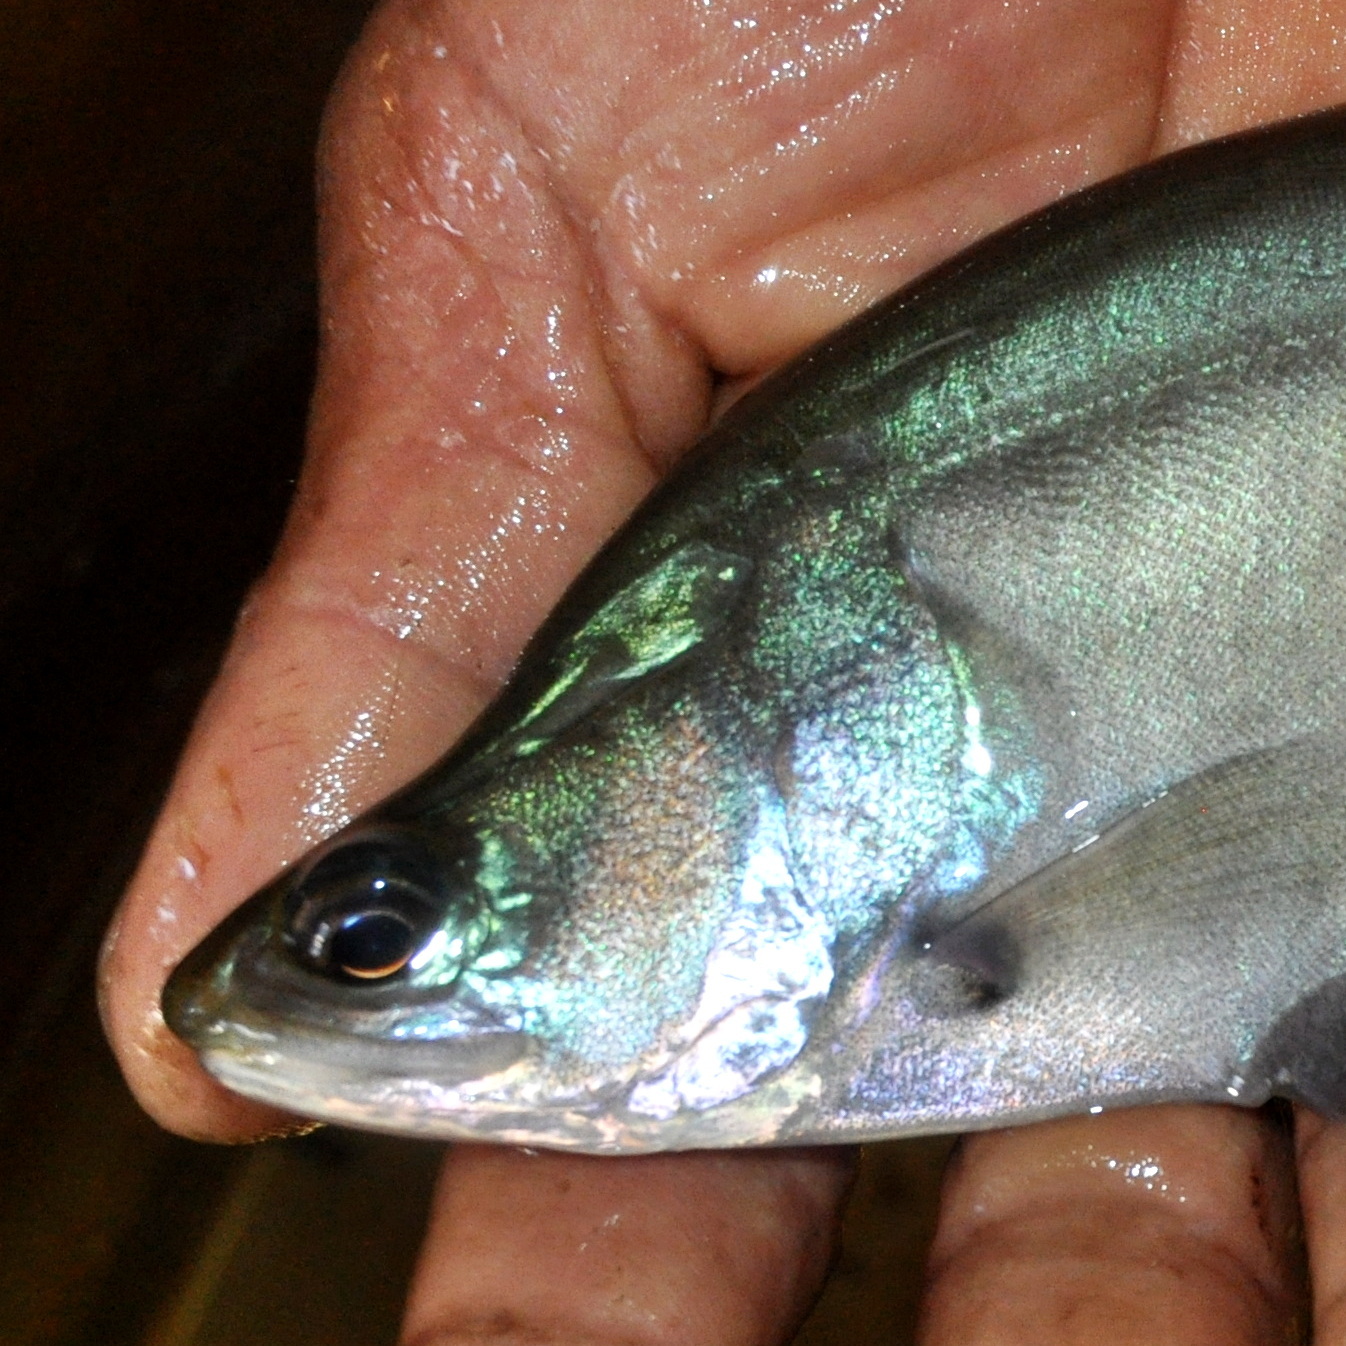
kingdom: Animalia
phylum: Chordata
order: Osteoglossiformes
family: Notopteridae
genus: Chitala
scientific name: Chitala hypselonotus
